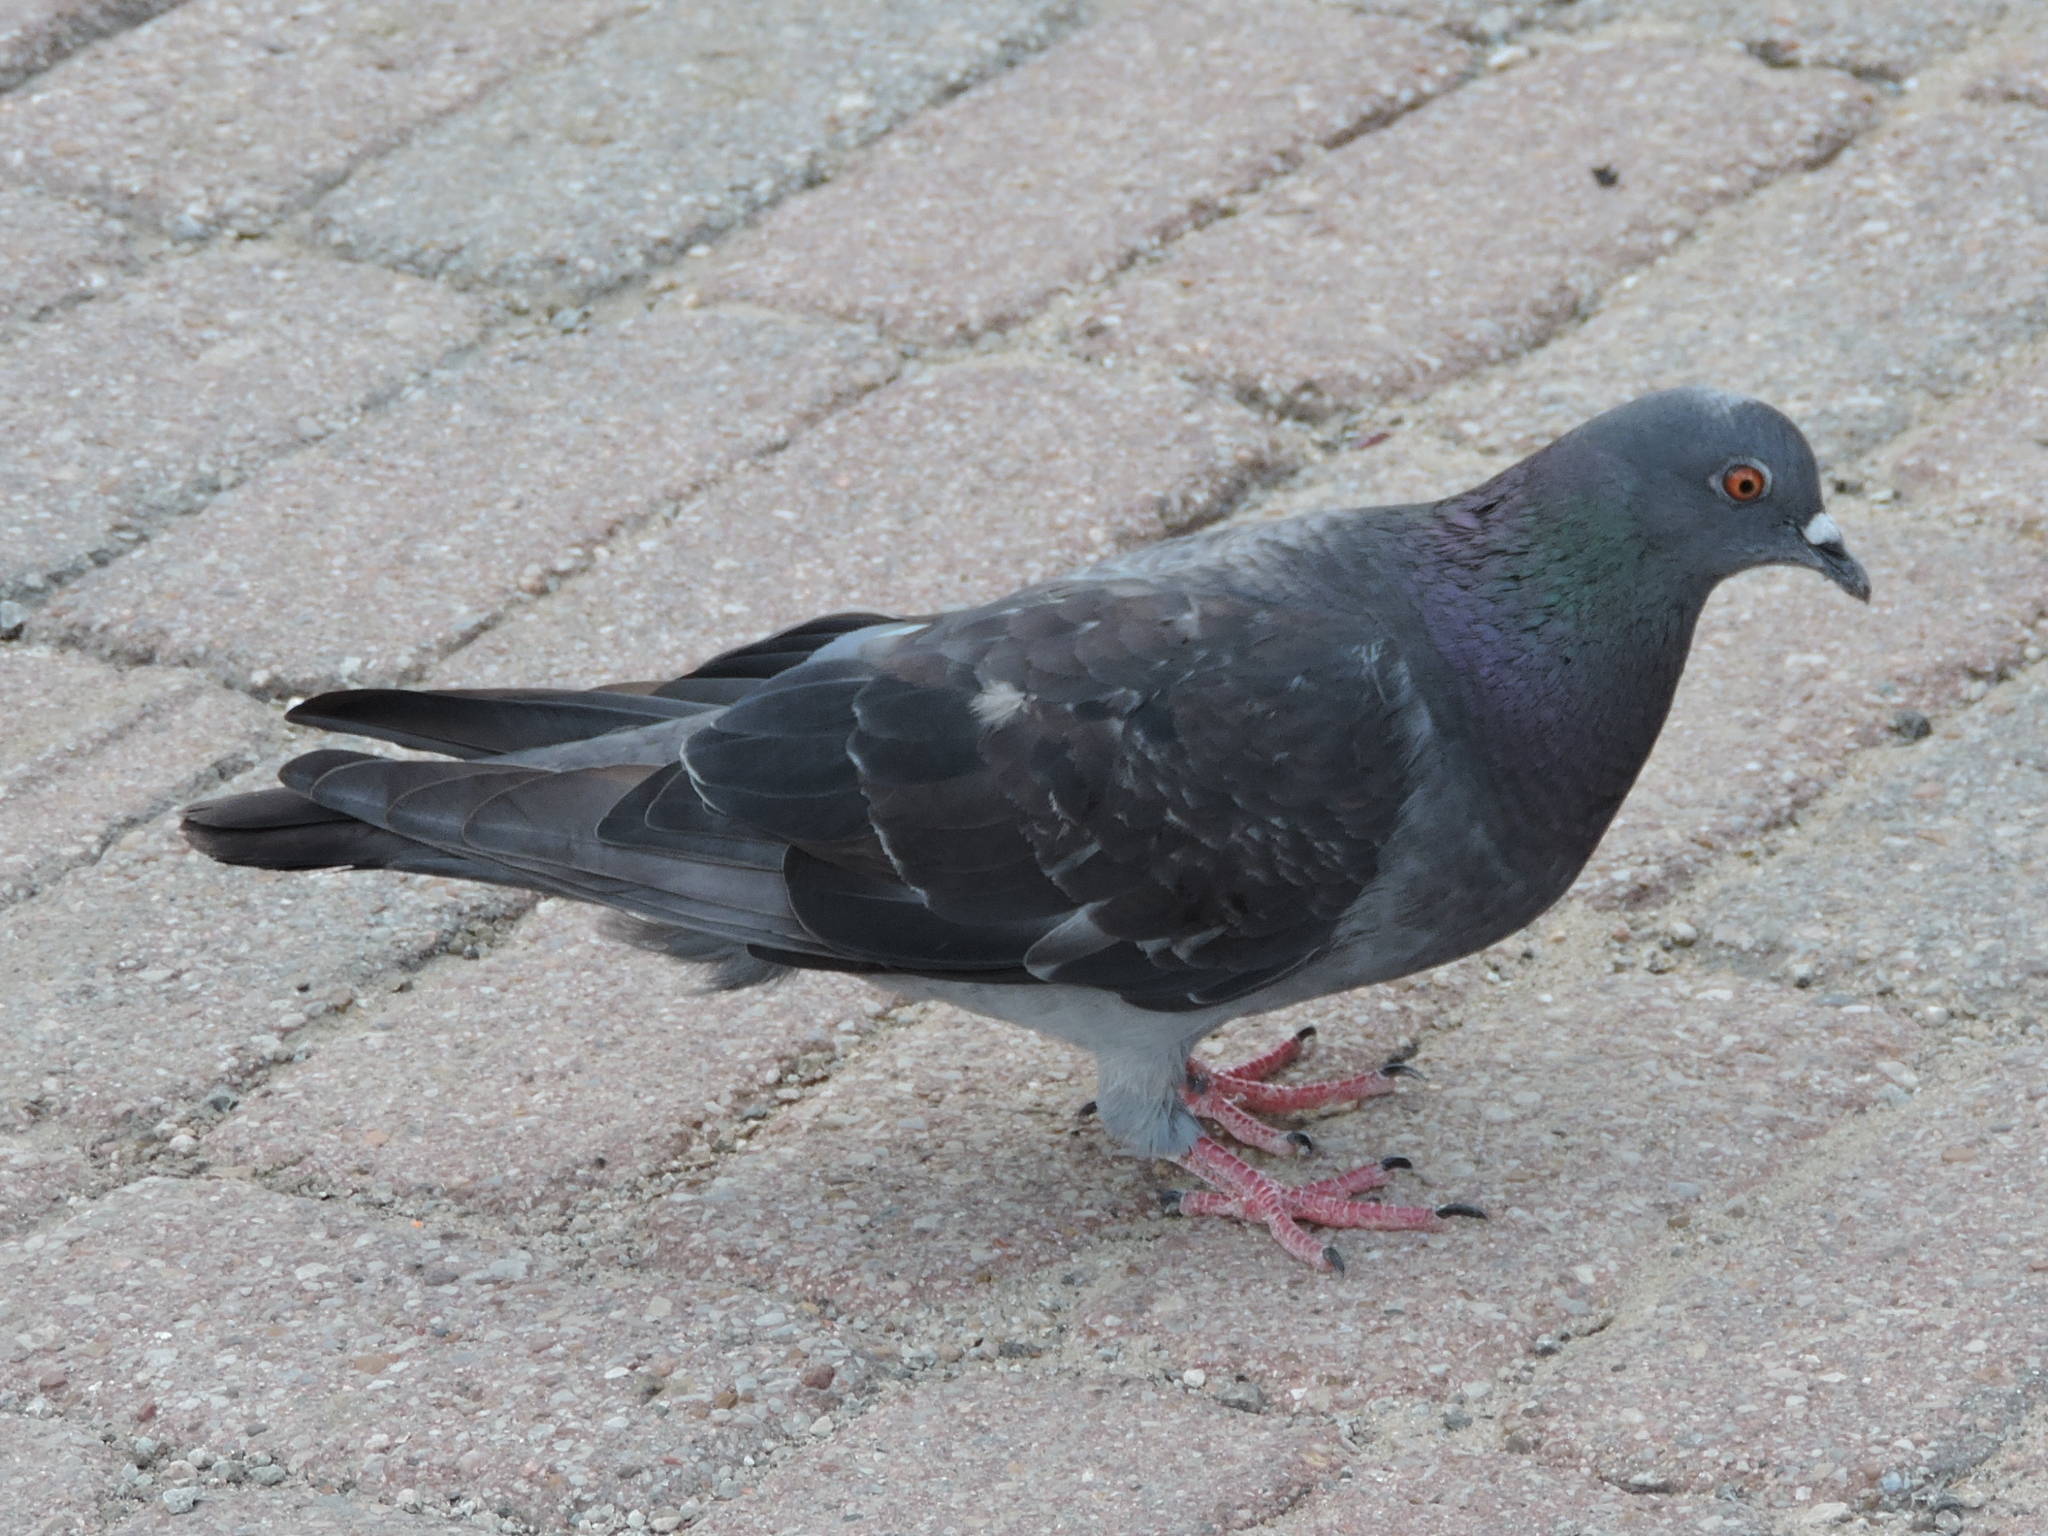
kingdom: Animalia
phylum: Chordata
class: Aves
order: Columbiformes
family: Columbidae
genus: Columba
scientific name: Columba livia
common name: Rock pigeon
